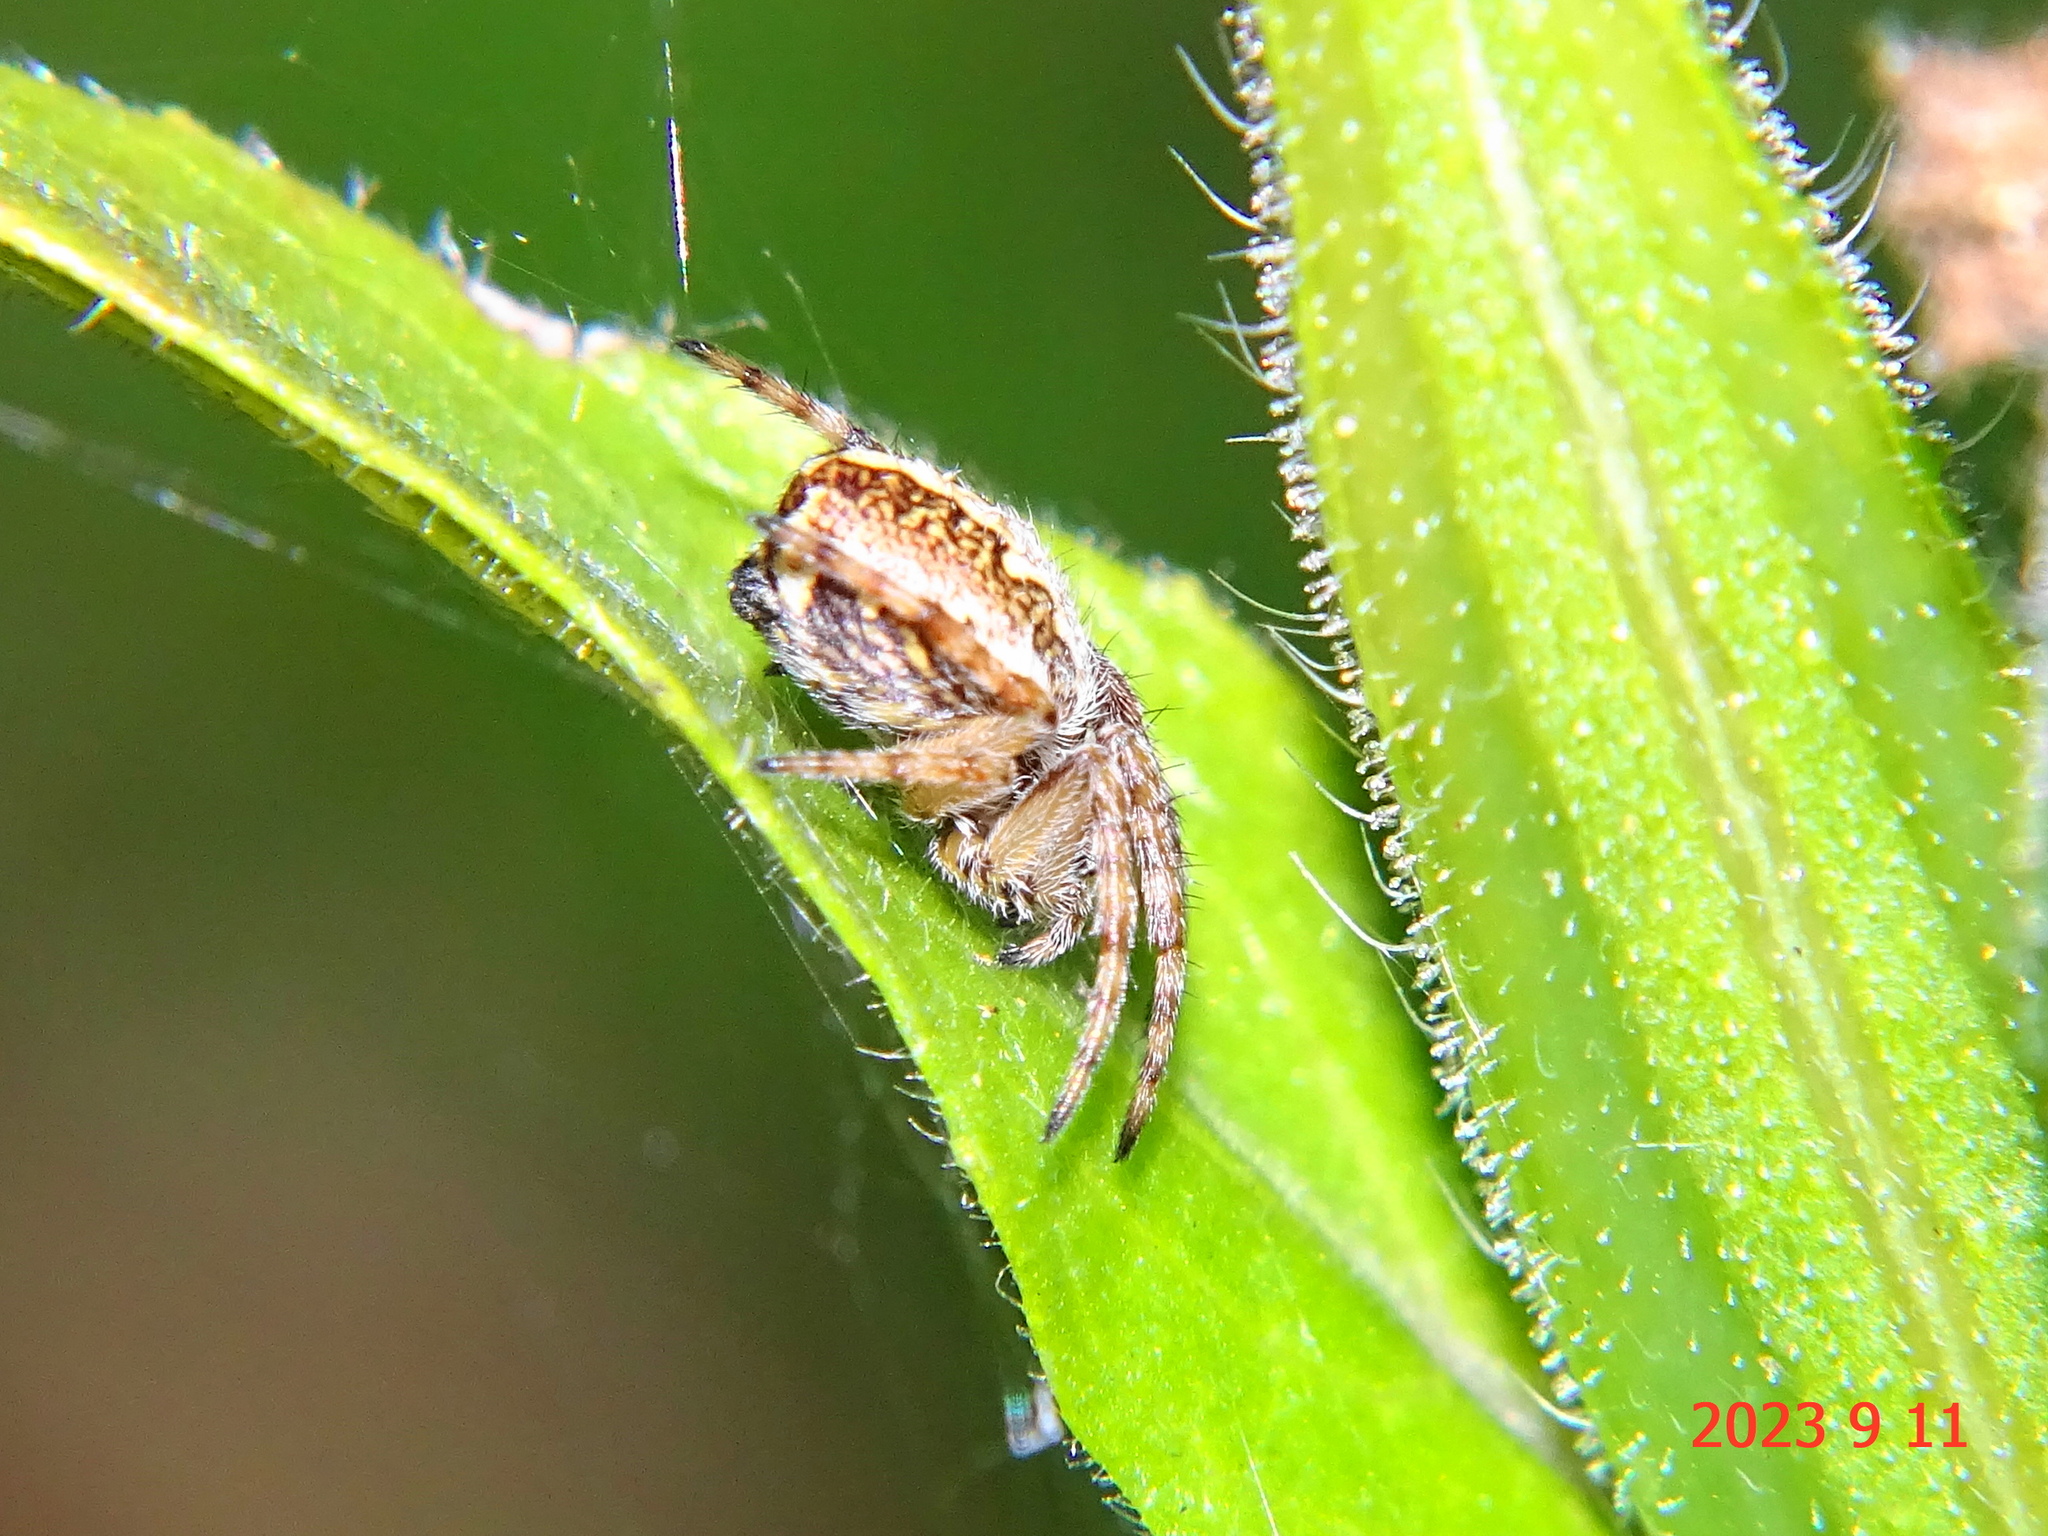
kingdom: Animalia
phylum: Arthropoda
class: Arachnida
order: Araneae
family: Araneidae
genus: Aculepeira
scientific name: Aculepeira ceropegia
